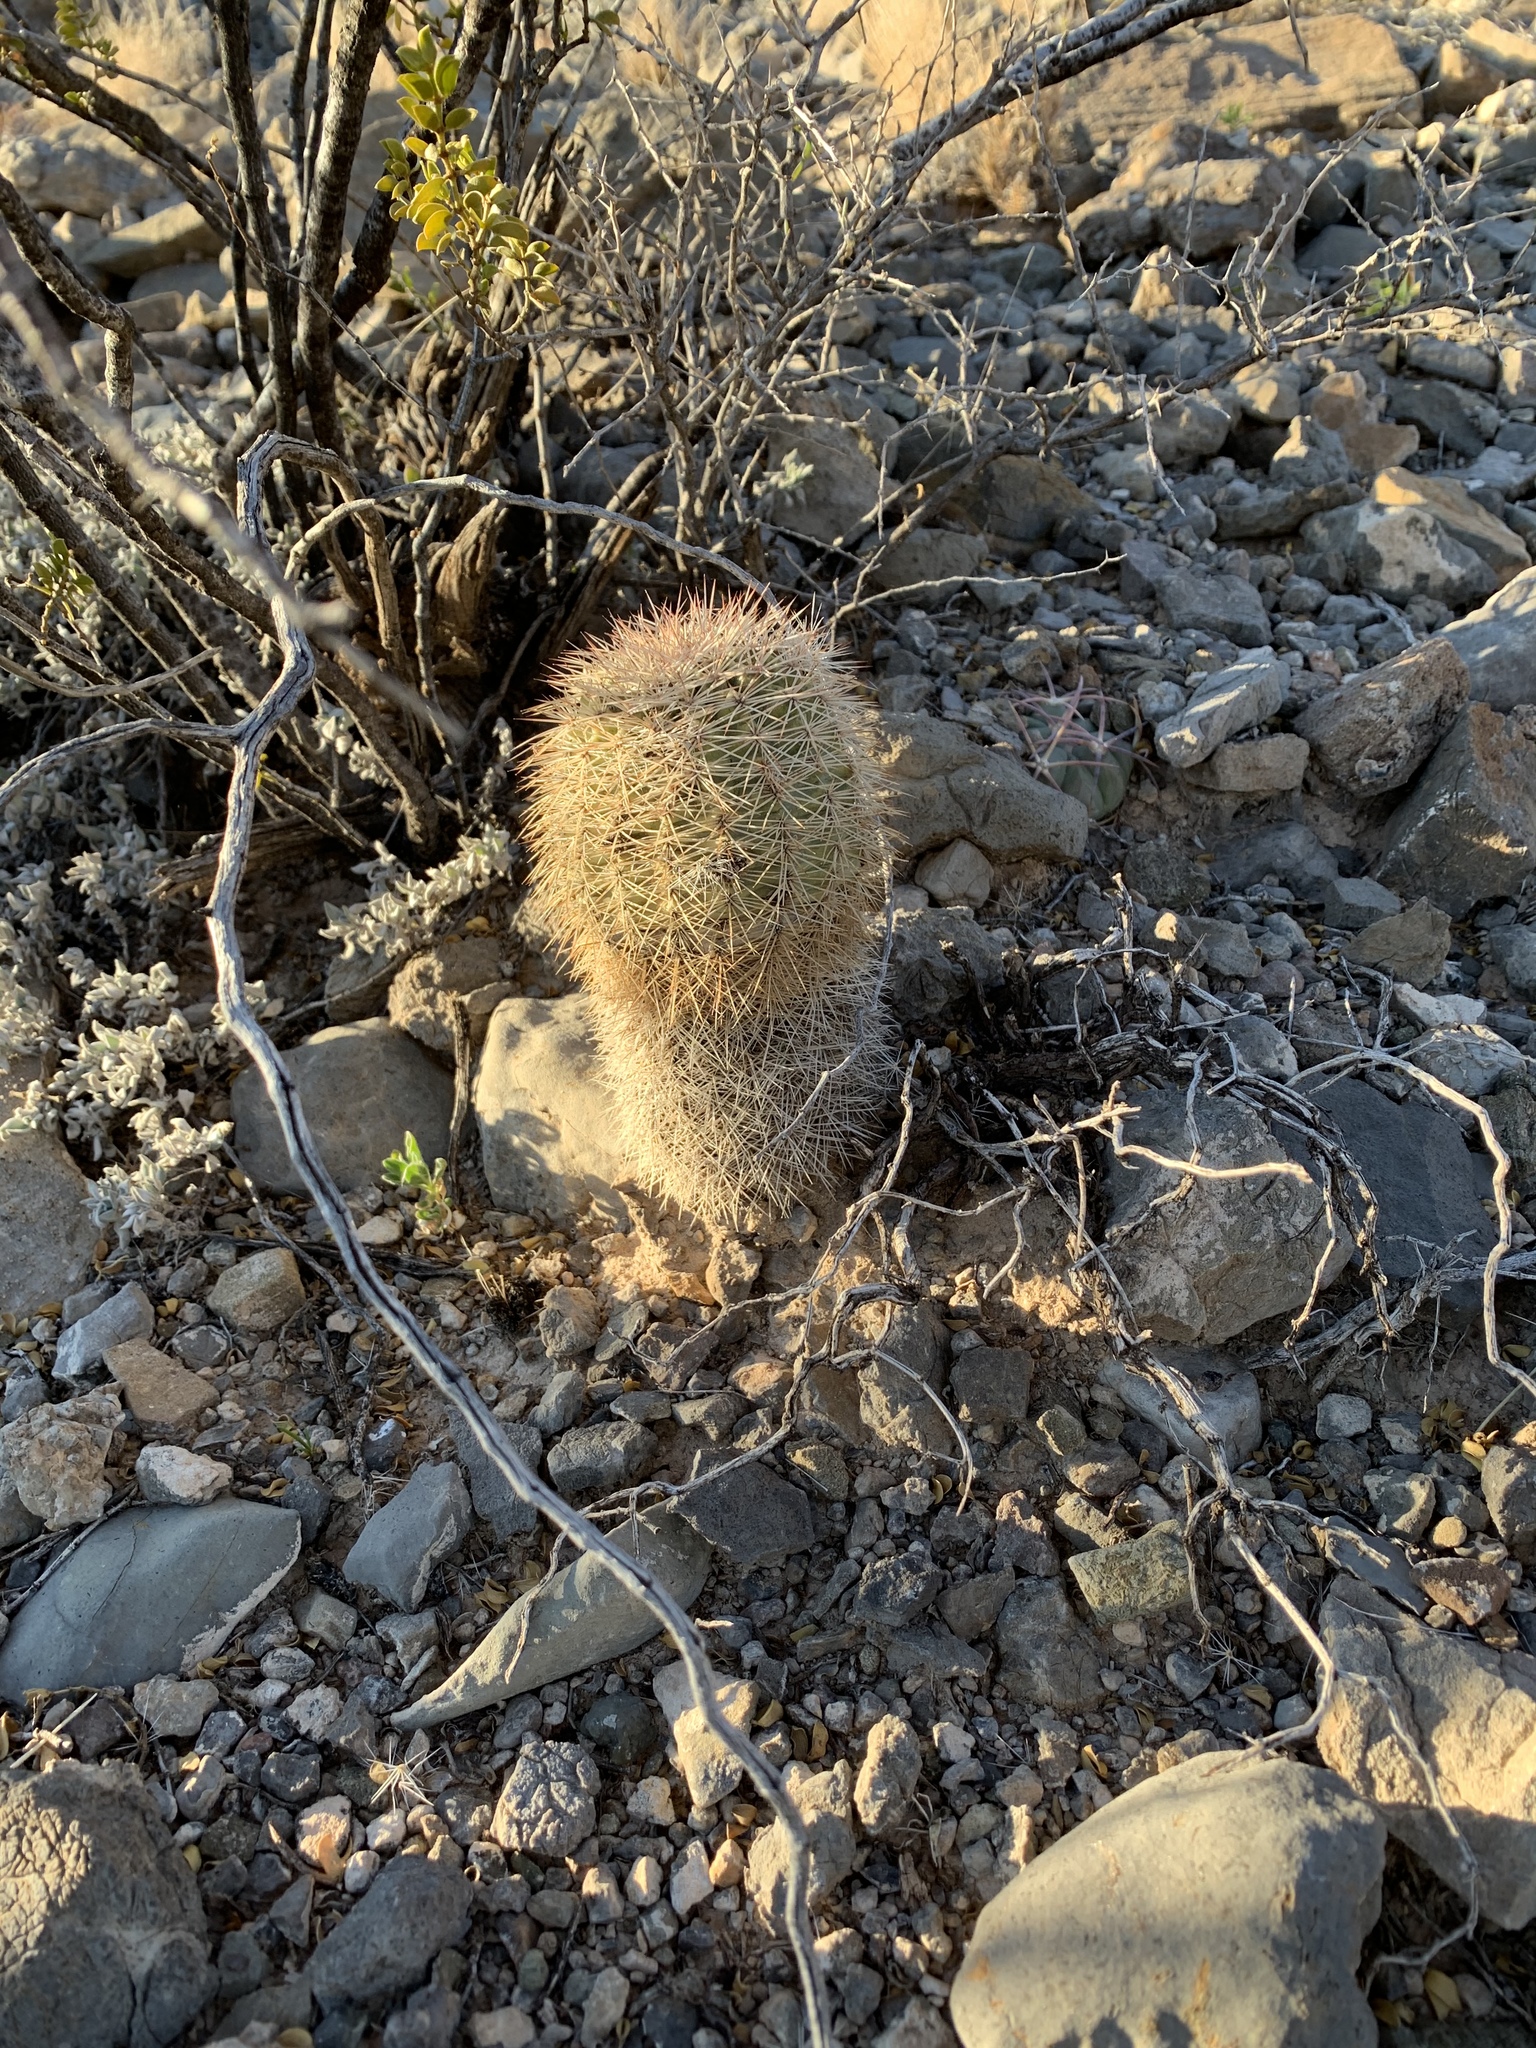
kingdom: Plantae
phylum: Tracheophyta
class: Magnoliopsida
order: Caryophyllales
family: Cactaceae
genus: Echinocereus
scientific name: Echinocereus dasyacanthus
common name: Spiny hedgehog cactus
